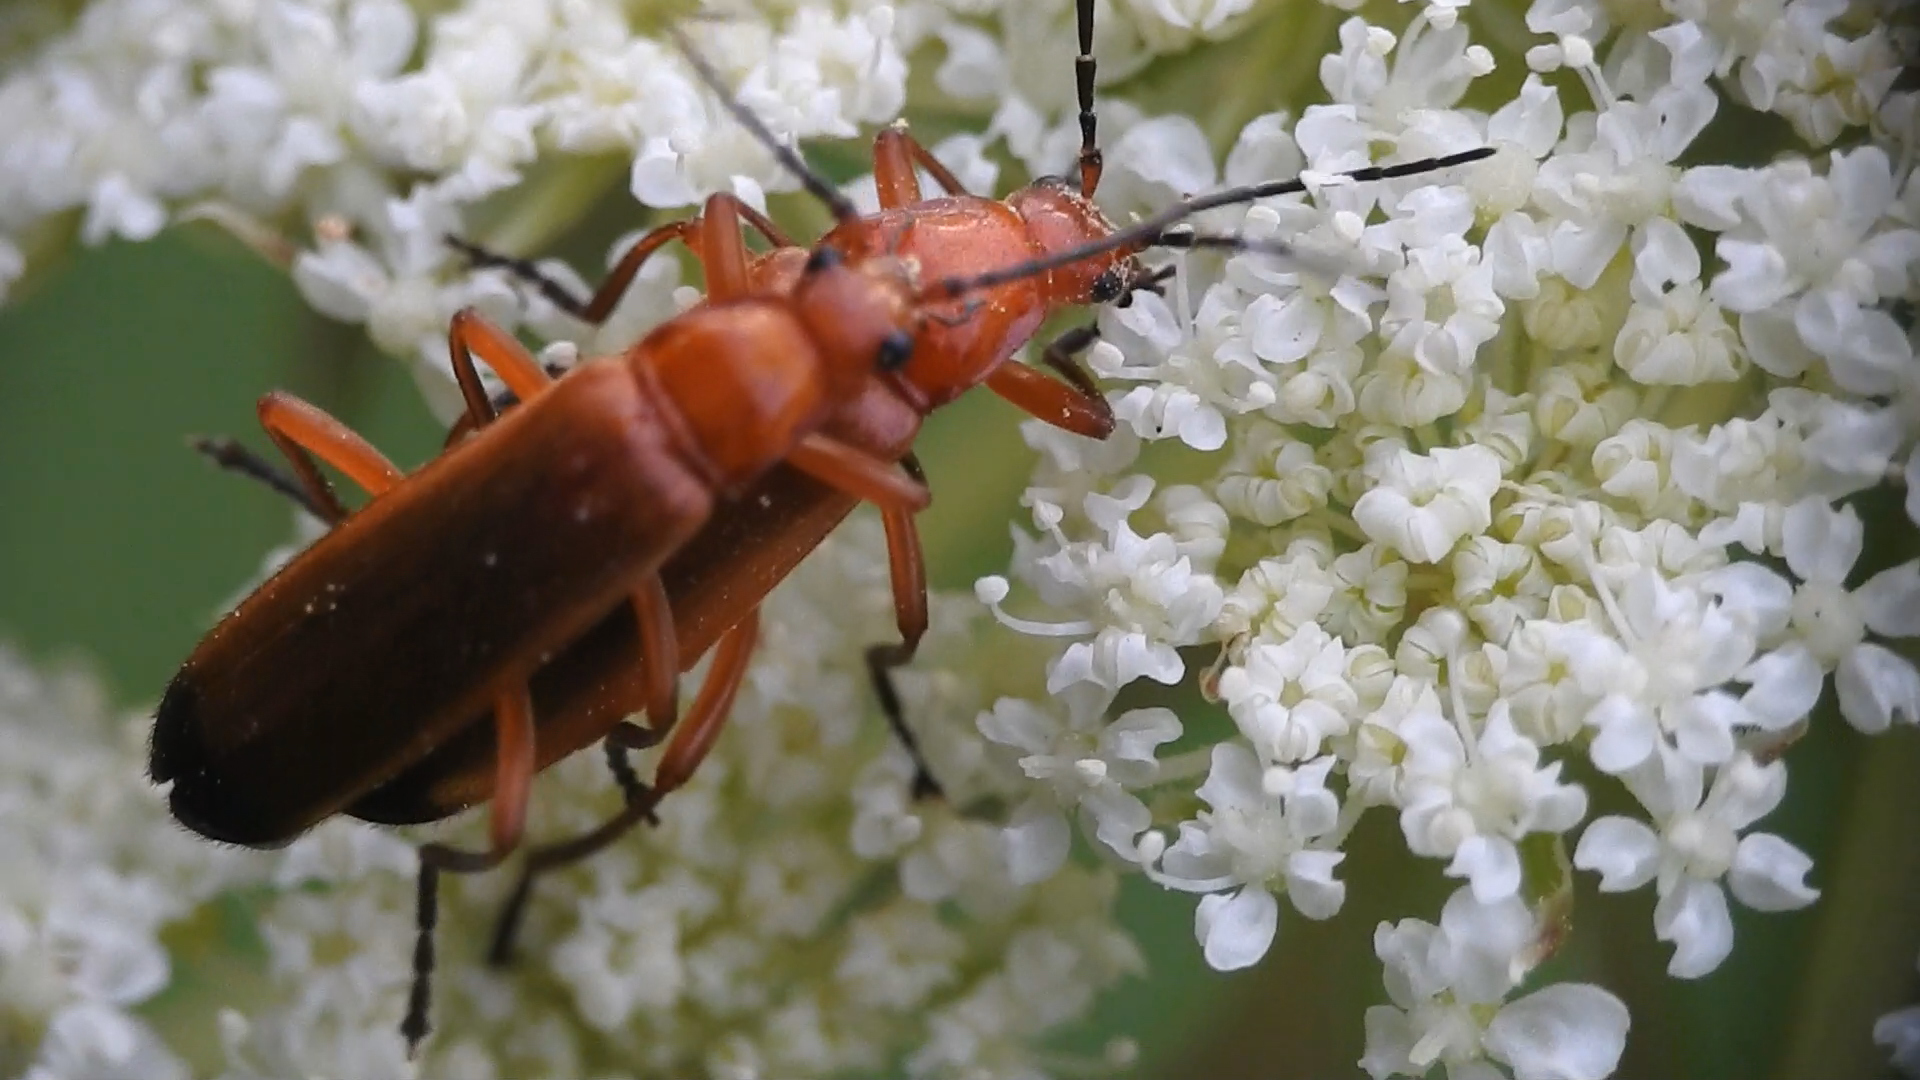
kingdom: Animalia
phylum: Arthropoda
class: Insecta
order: Coleoptera
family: Cantharidae
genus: Rhagonycha
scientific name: Rhagonycha fulva
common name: Common red soldier beetle
